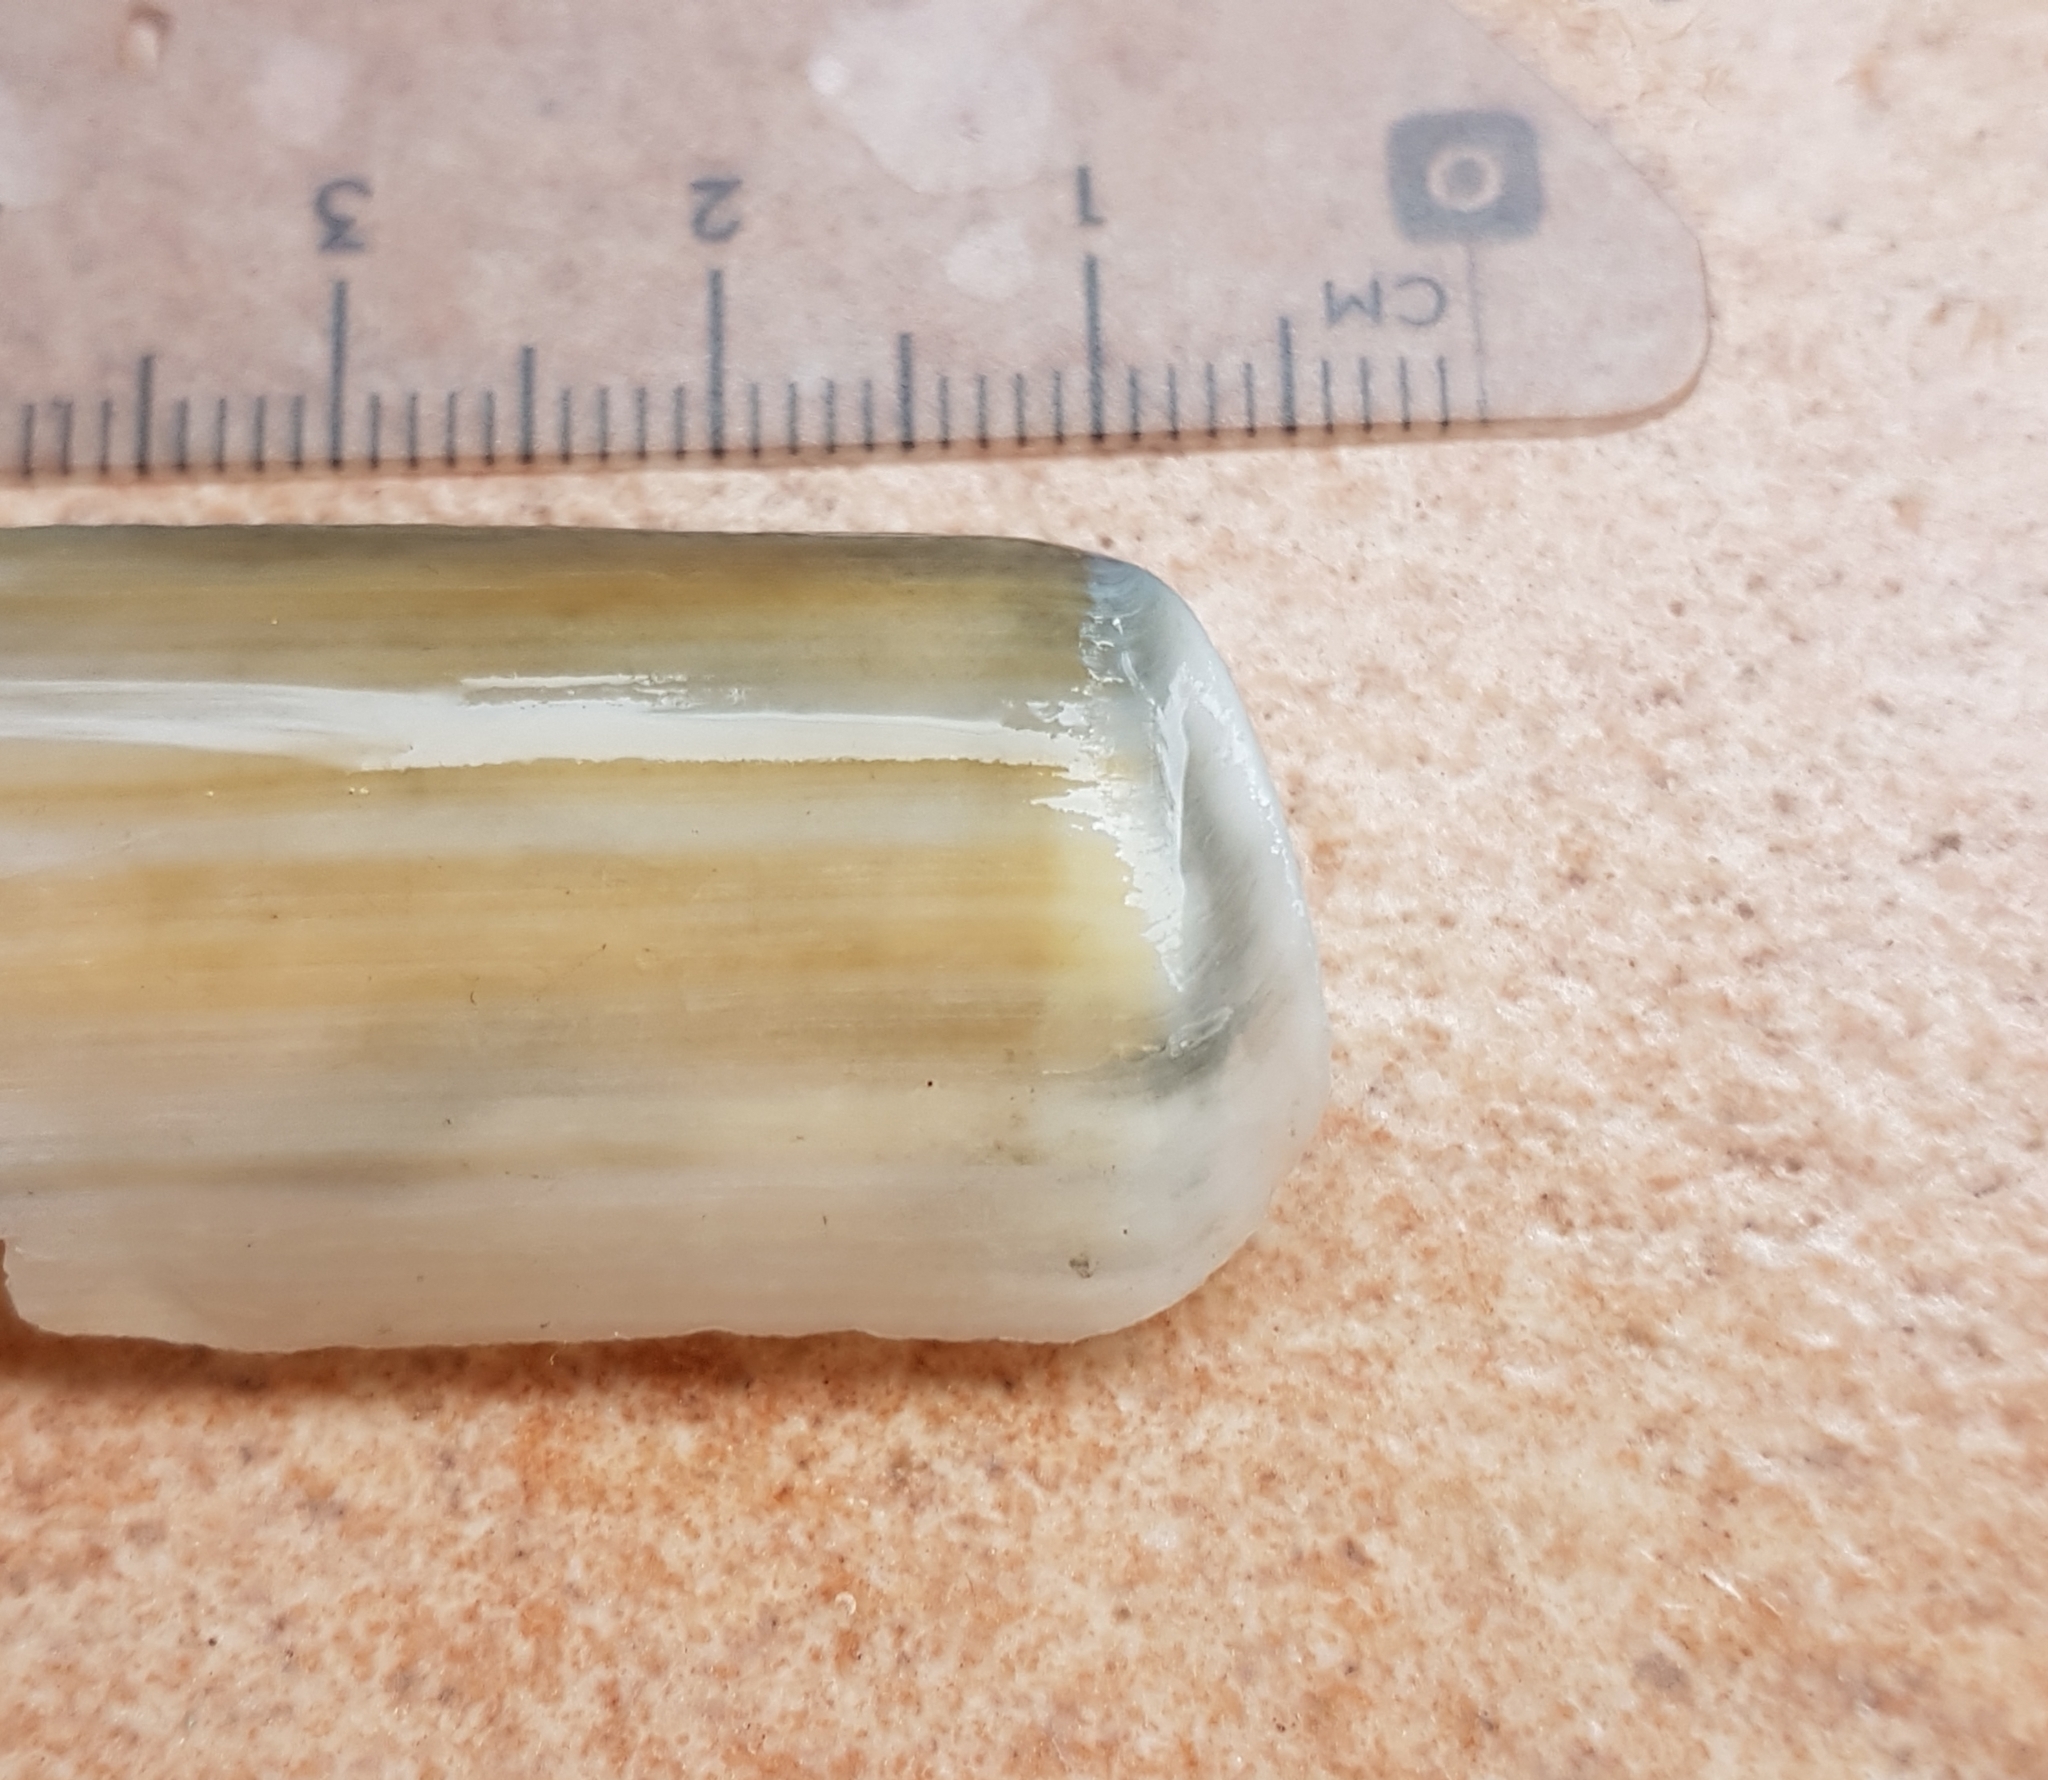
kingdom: Animalia
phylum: Mollusca
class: Bivalvia
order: Adapedonta
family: Solenidae
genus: Solen
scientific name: Solen marginatus
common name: Grooved razor shell
